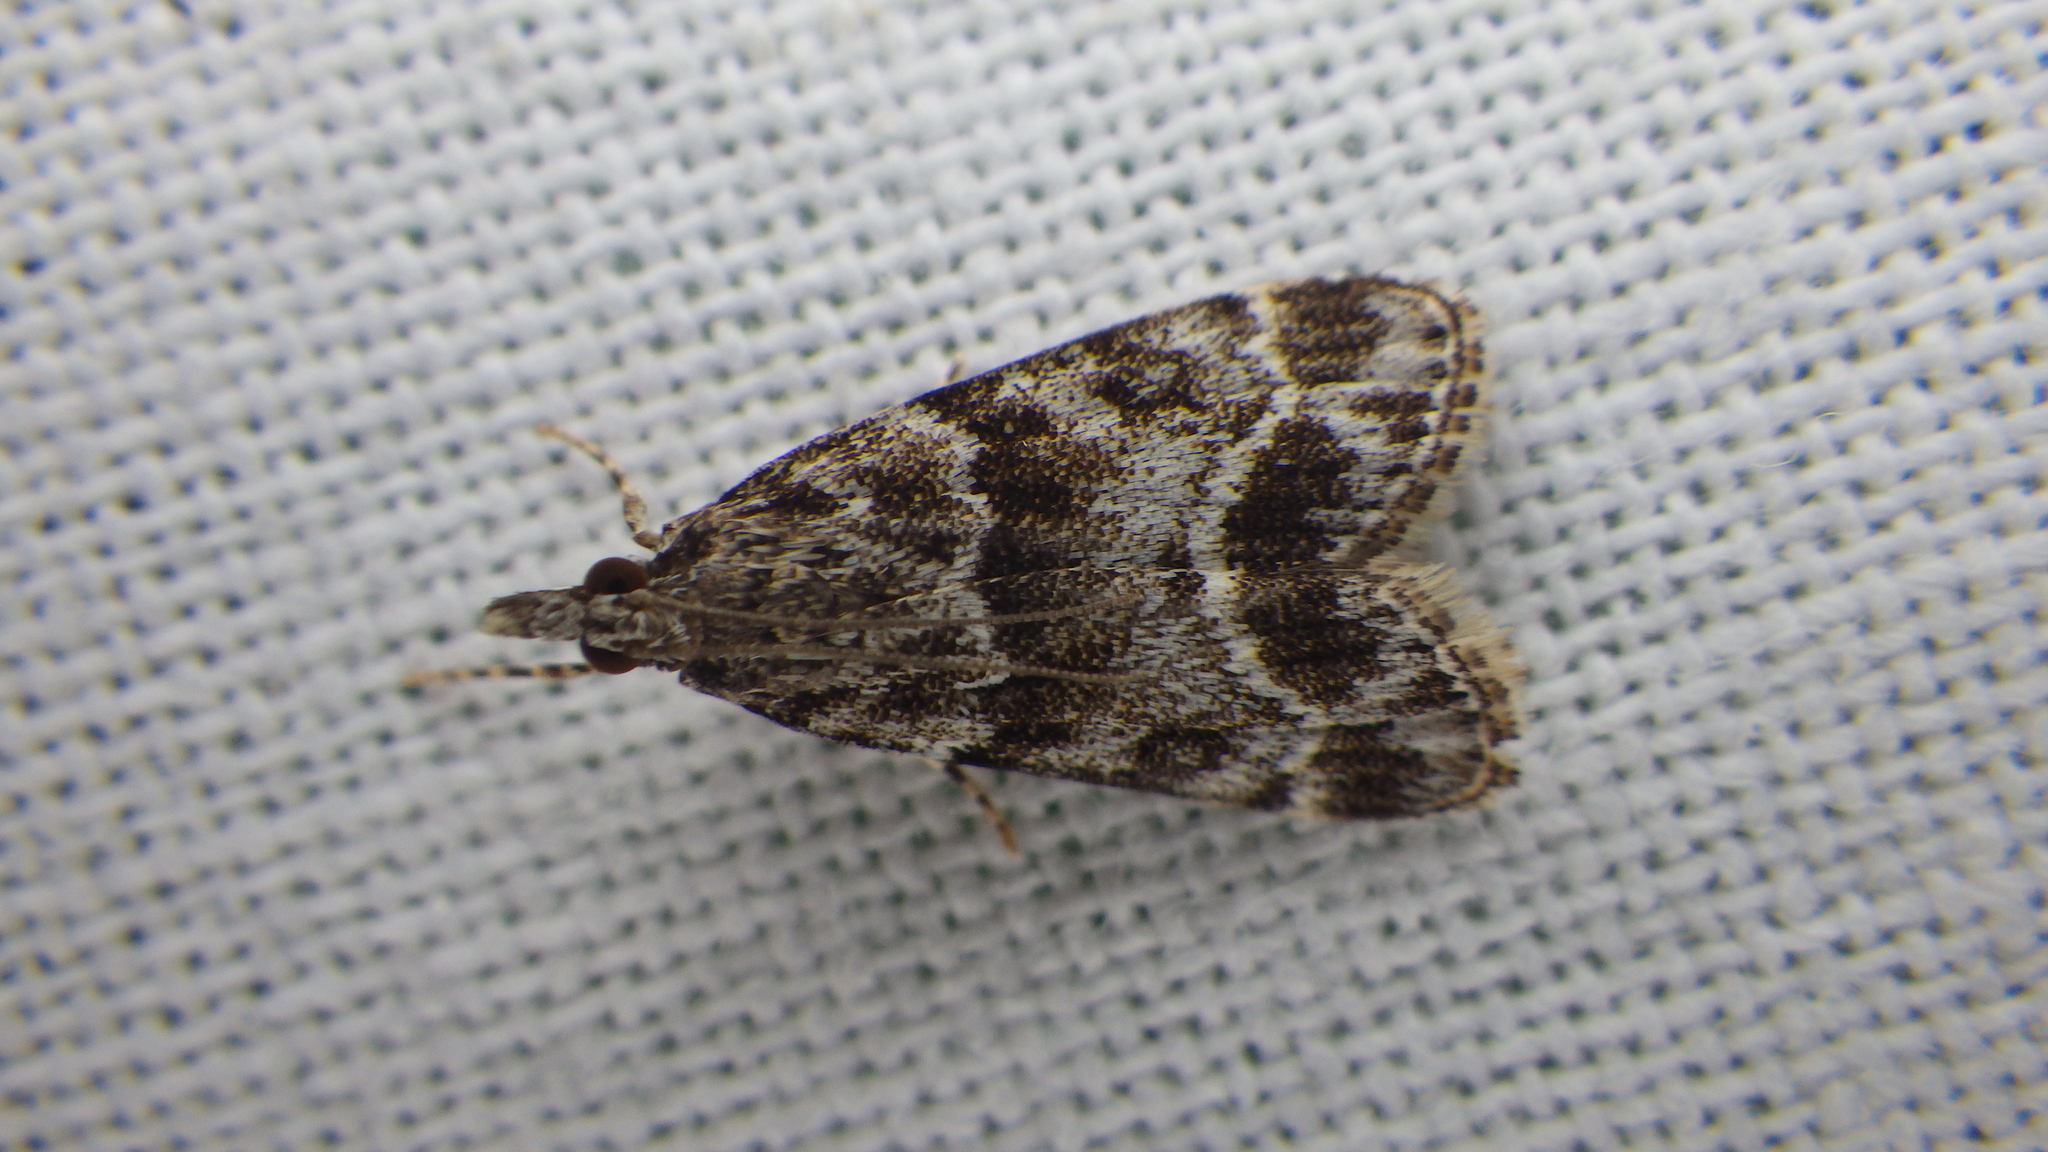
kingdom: Animalia
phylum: Arthropoda
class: Insecta
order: Lepidoptera
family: Crambidae
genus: Eudonia
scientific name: Eudonia mercurella
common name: Small grey
